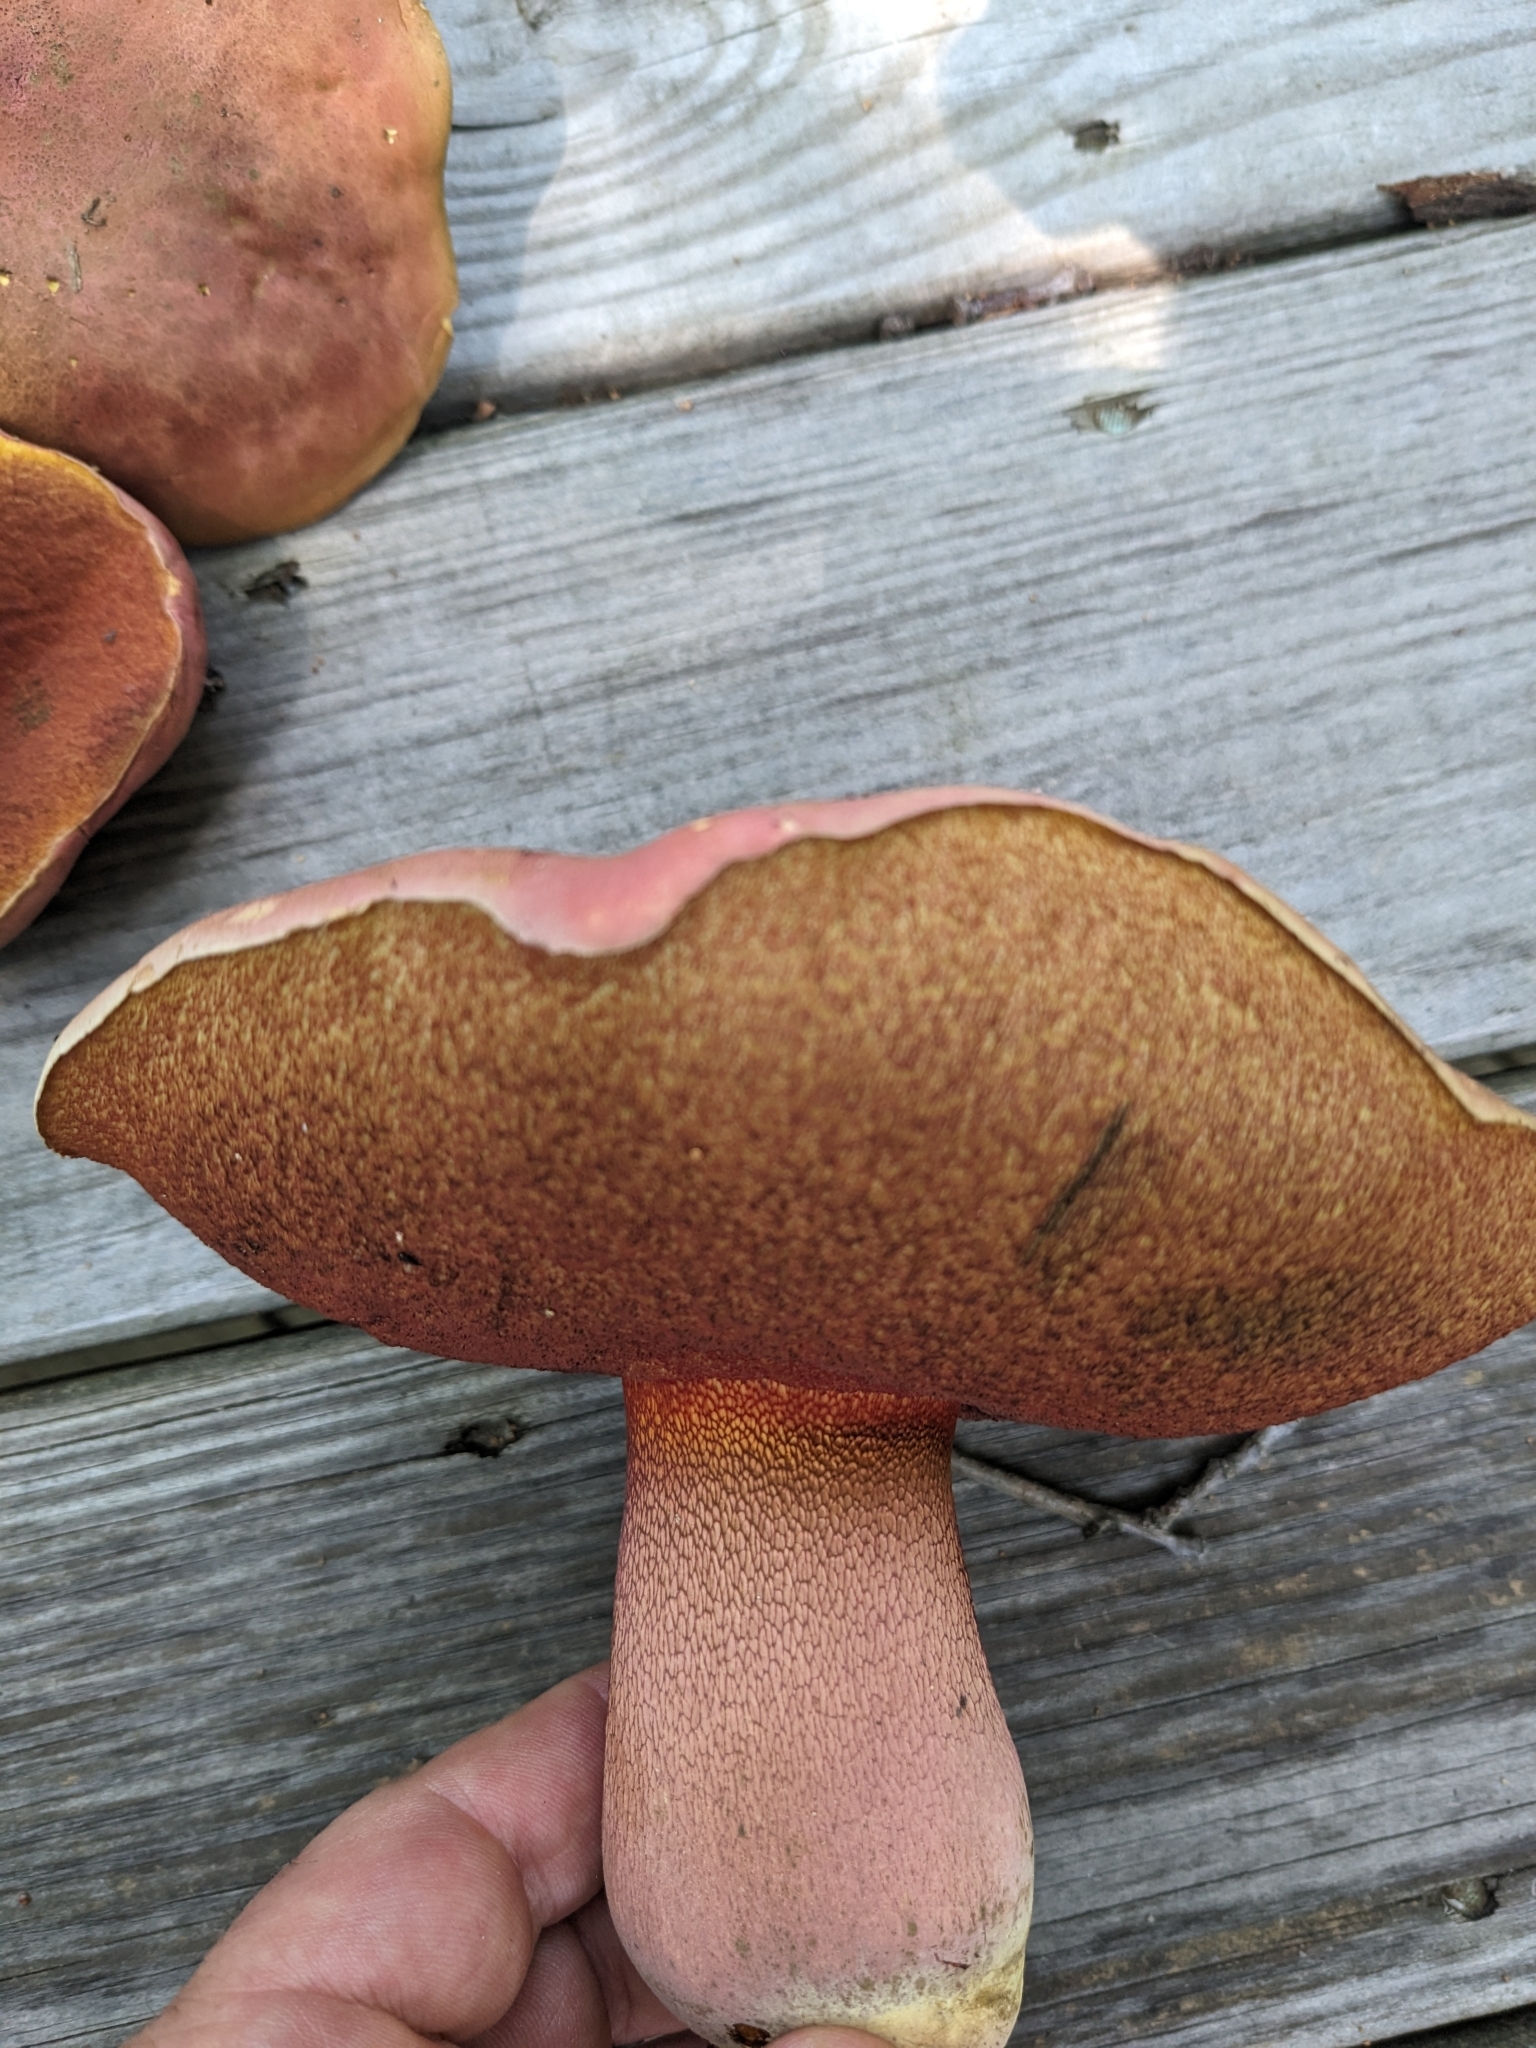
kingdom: Fungi
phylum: Basidiomycota
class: Agaricomycetes
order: Boletales
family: Boletaceae
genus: Boletus
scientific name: Boletus rubroflammeus
